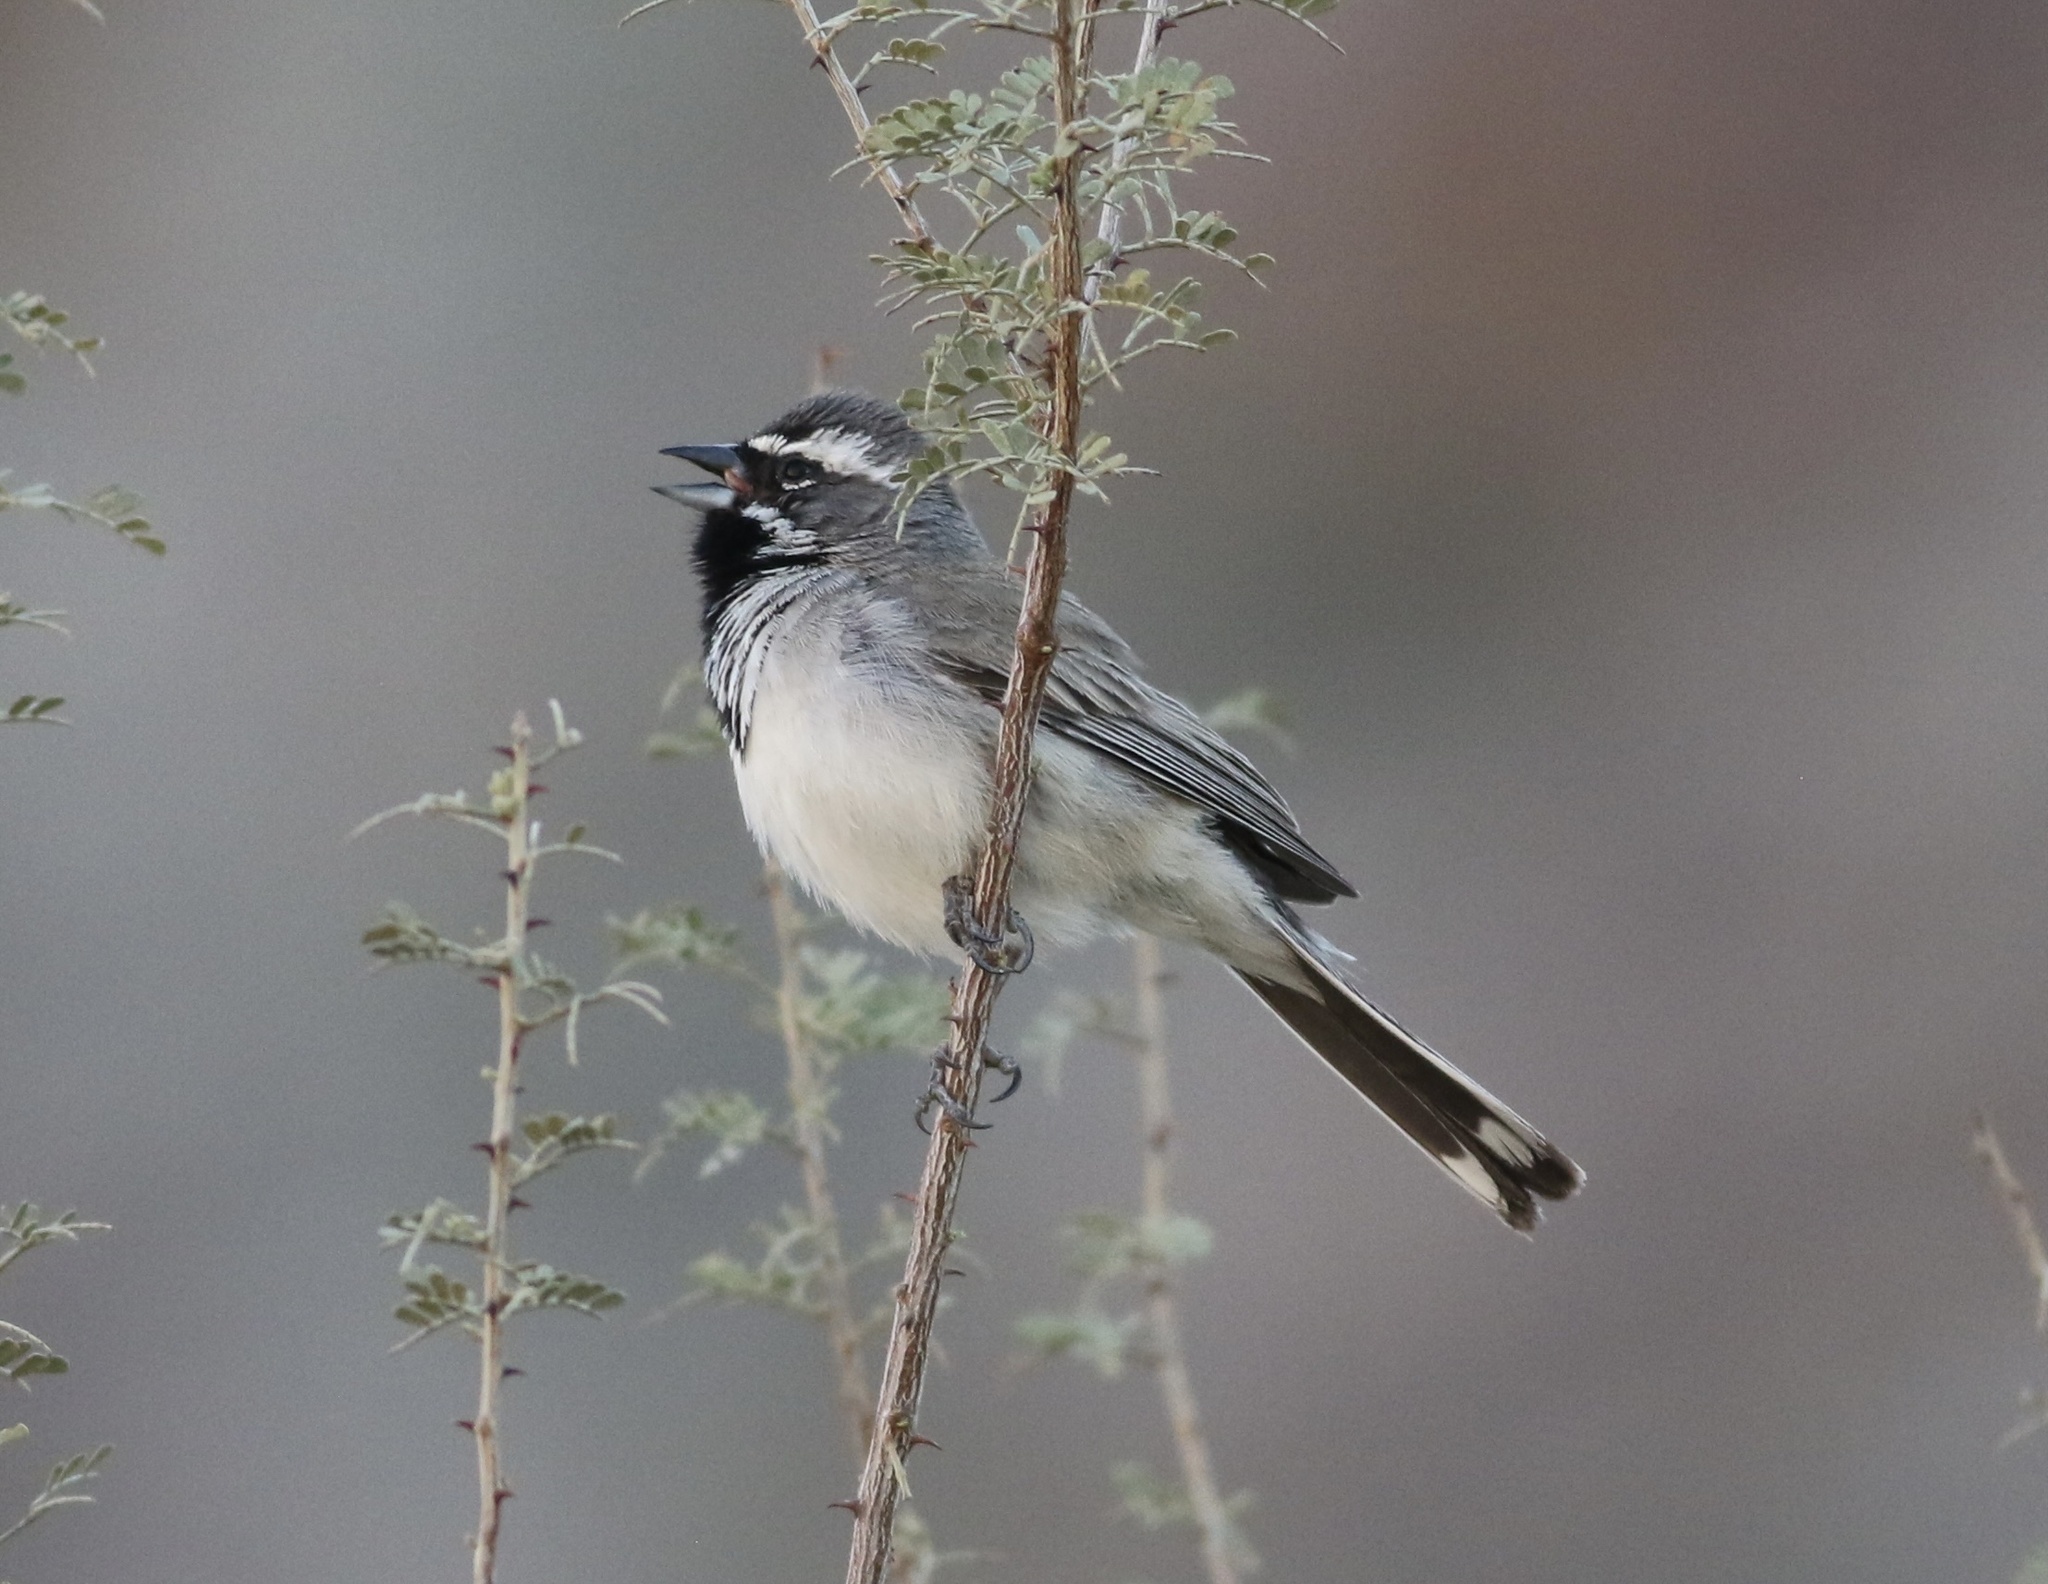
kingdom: Animalia
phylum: Chordata
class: Aves
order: Passeriformes
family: Passerellidae
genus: Amphispiza
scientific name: Amphispiza bilineata
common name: Black-throated sparrow
